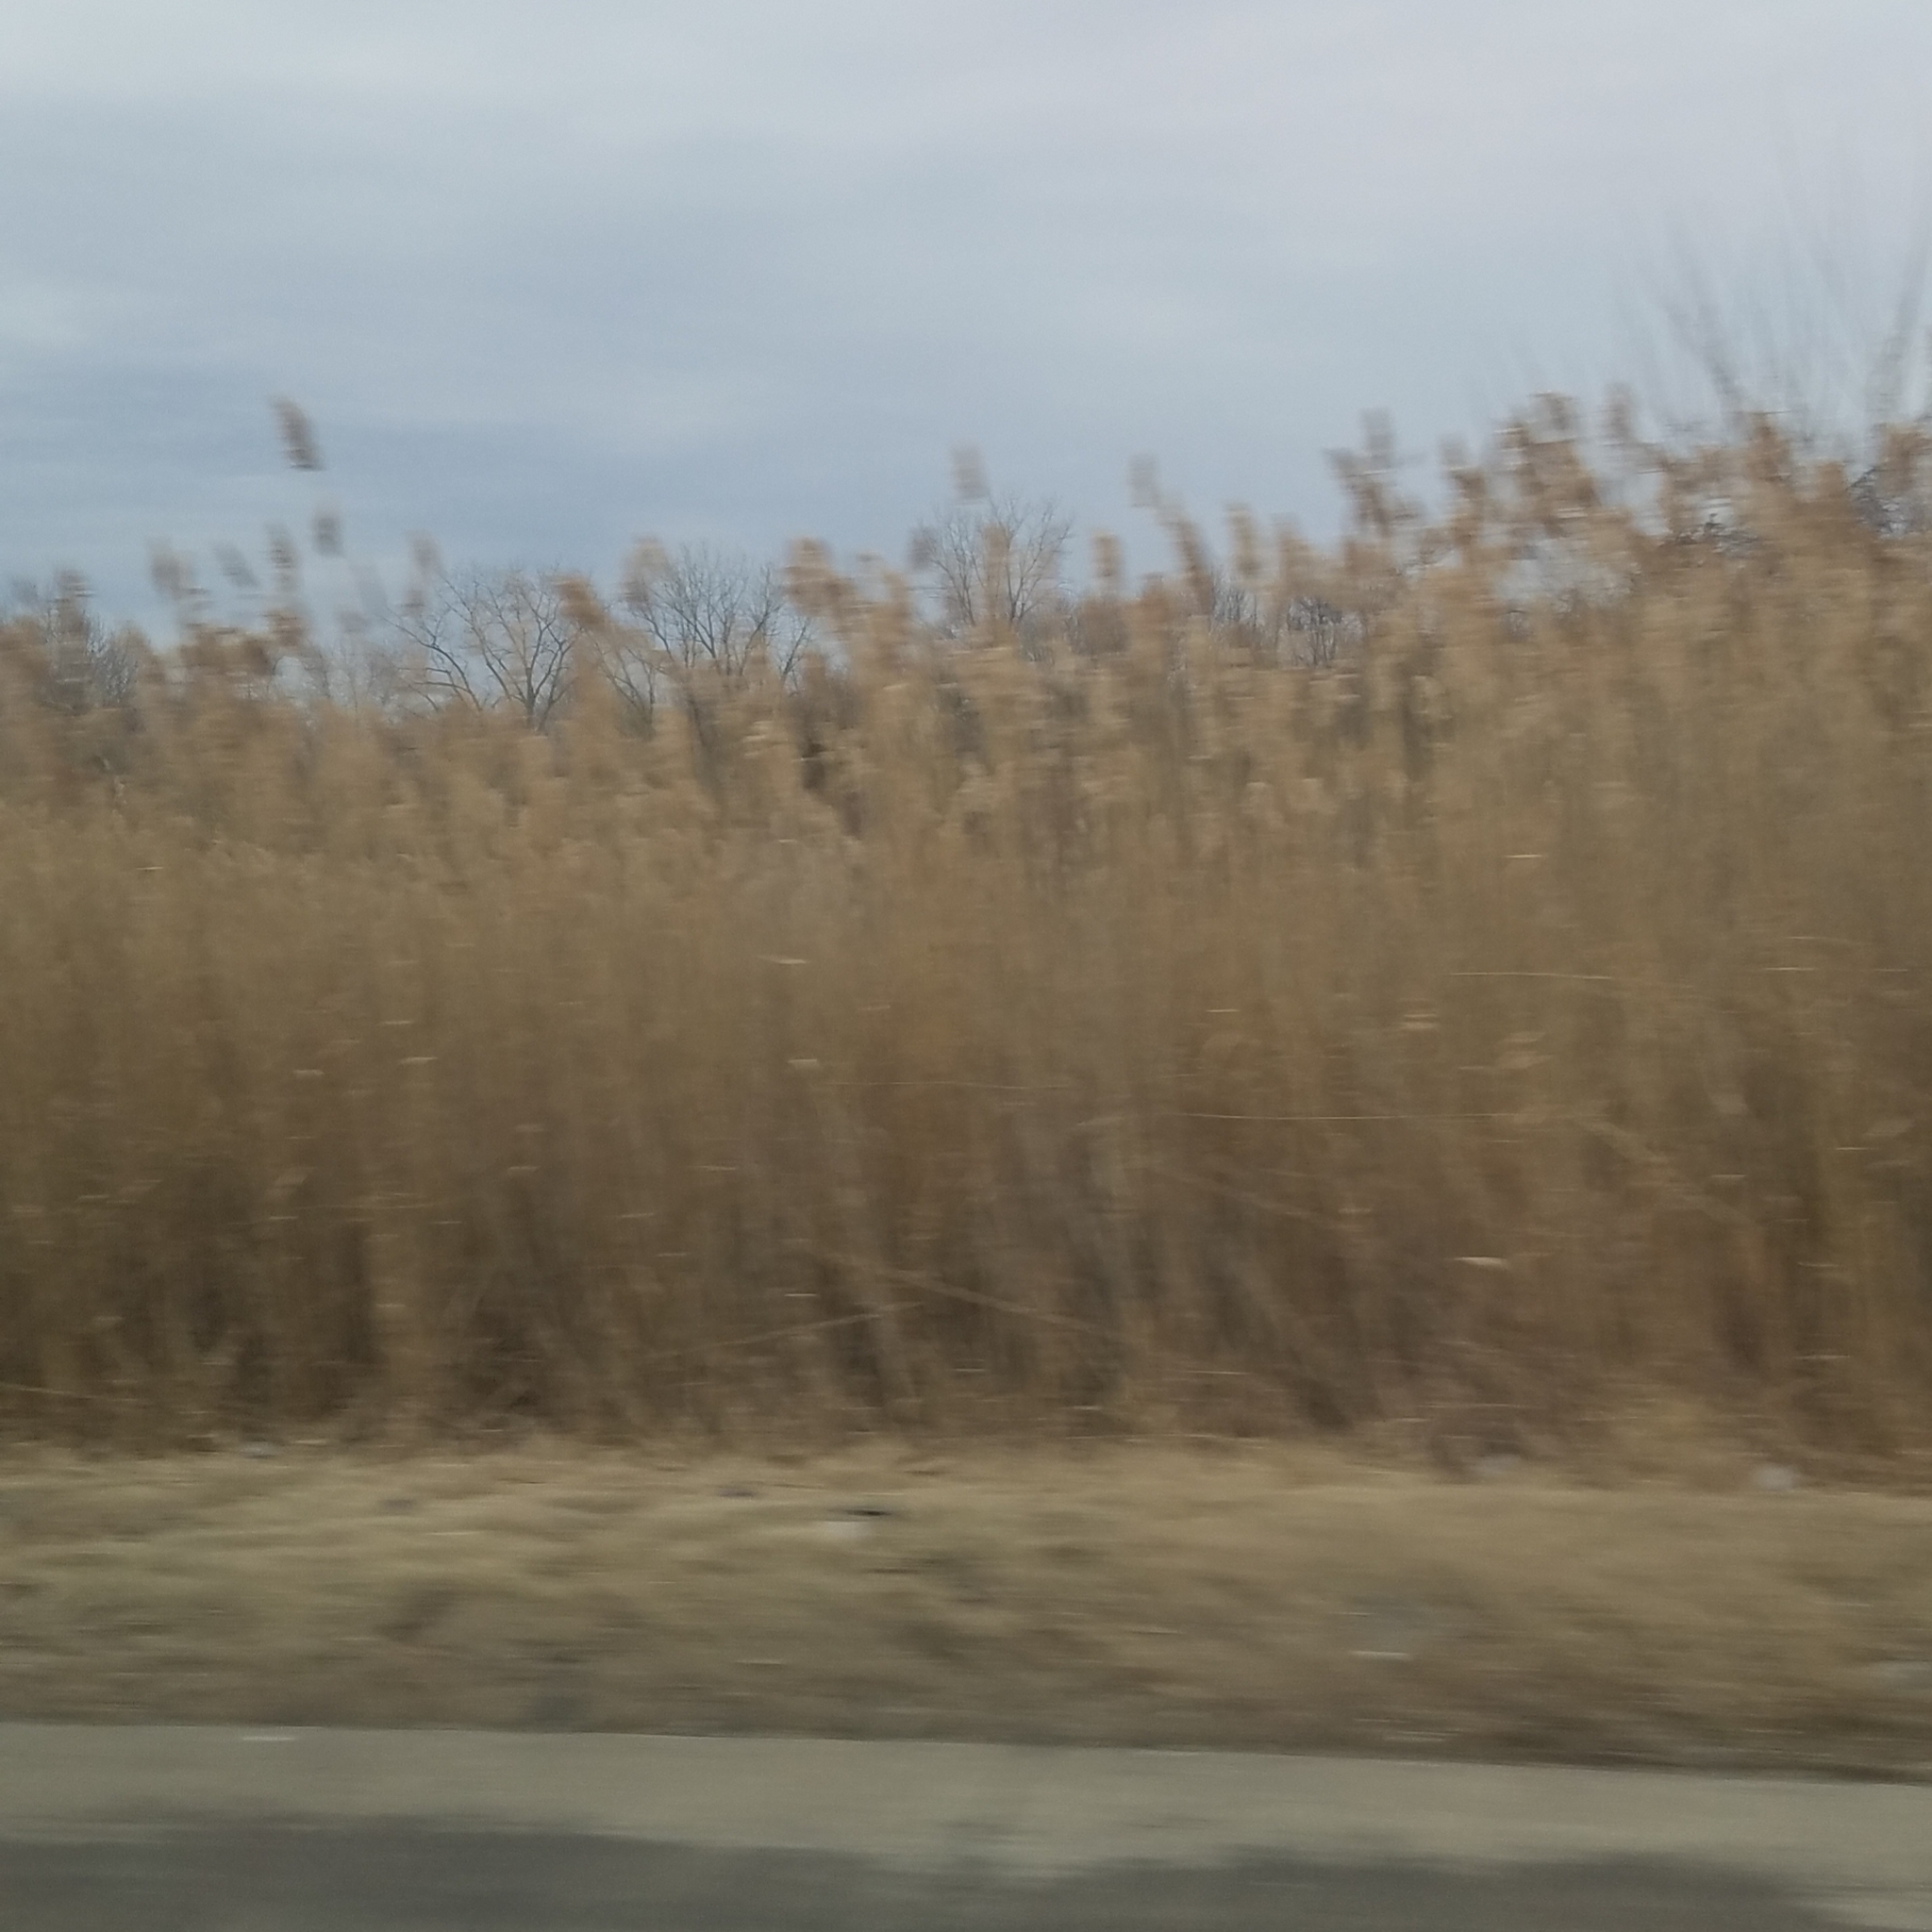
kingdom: Plantae
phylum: Tracheophyta
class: Liliopsida
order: Poales
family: Poaceae
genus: Phragmites
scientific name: Phragmites australis
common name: Common reed
